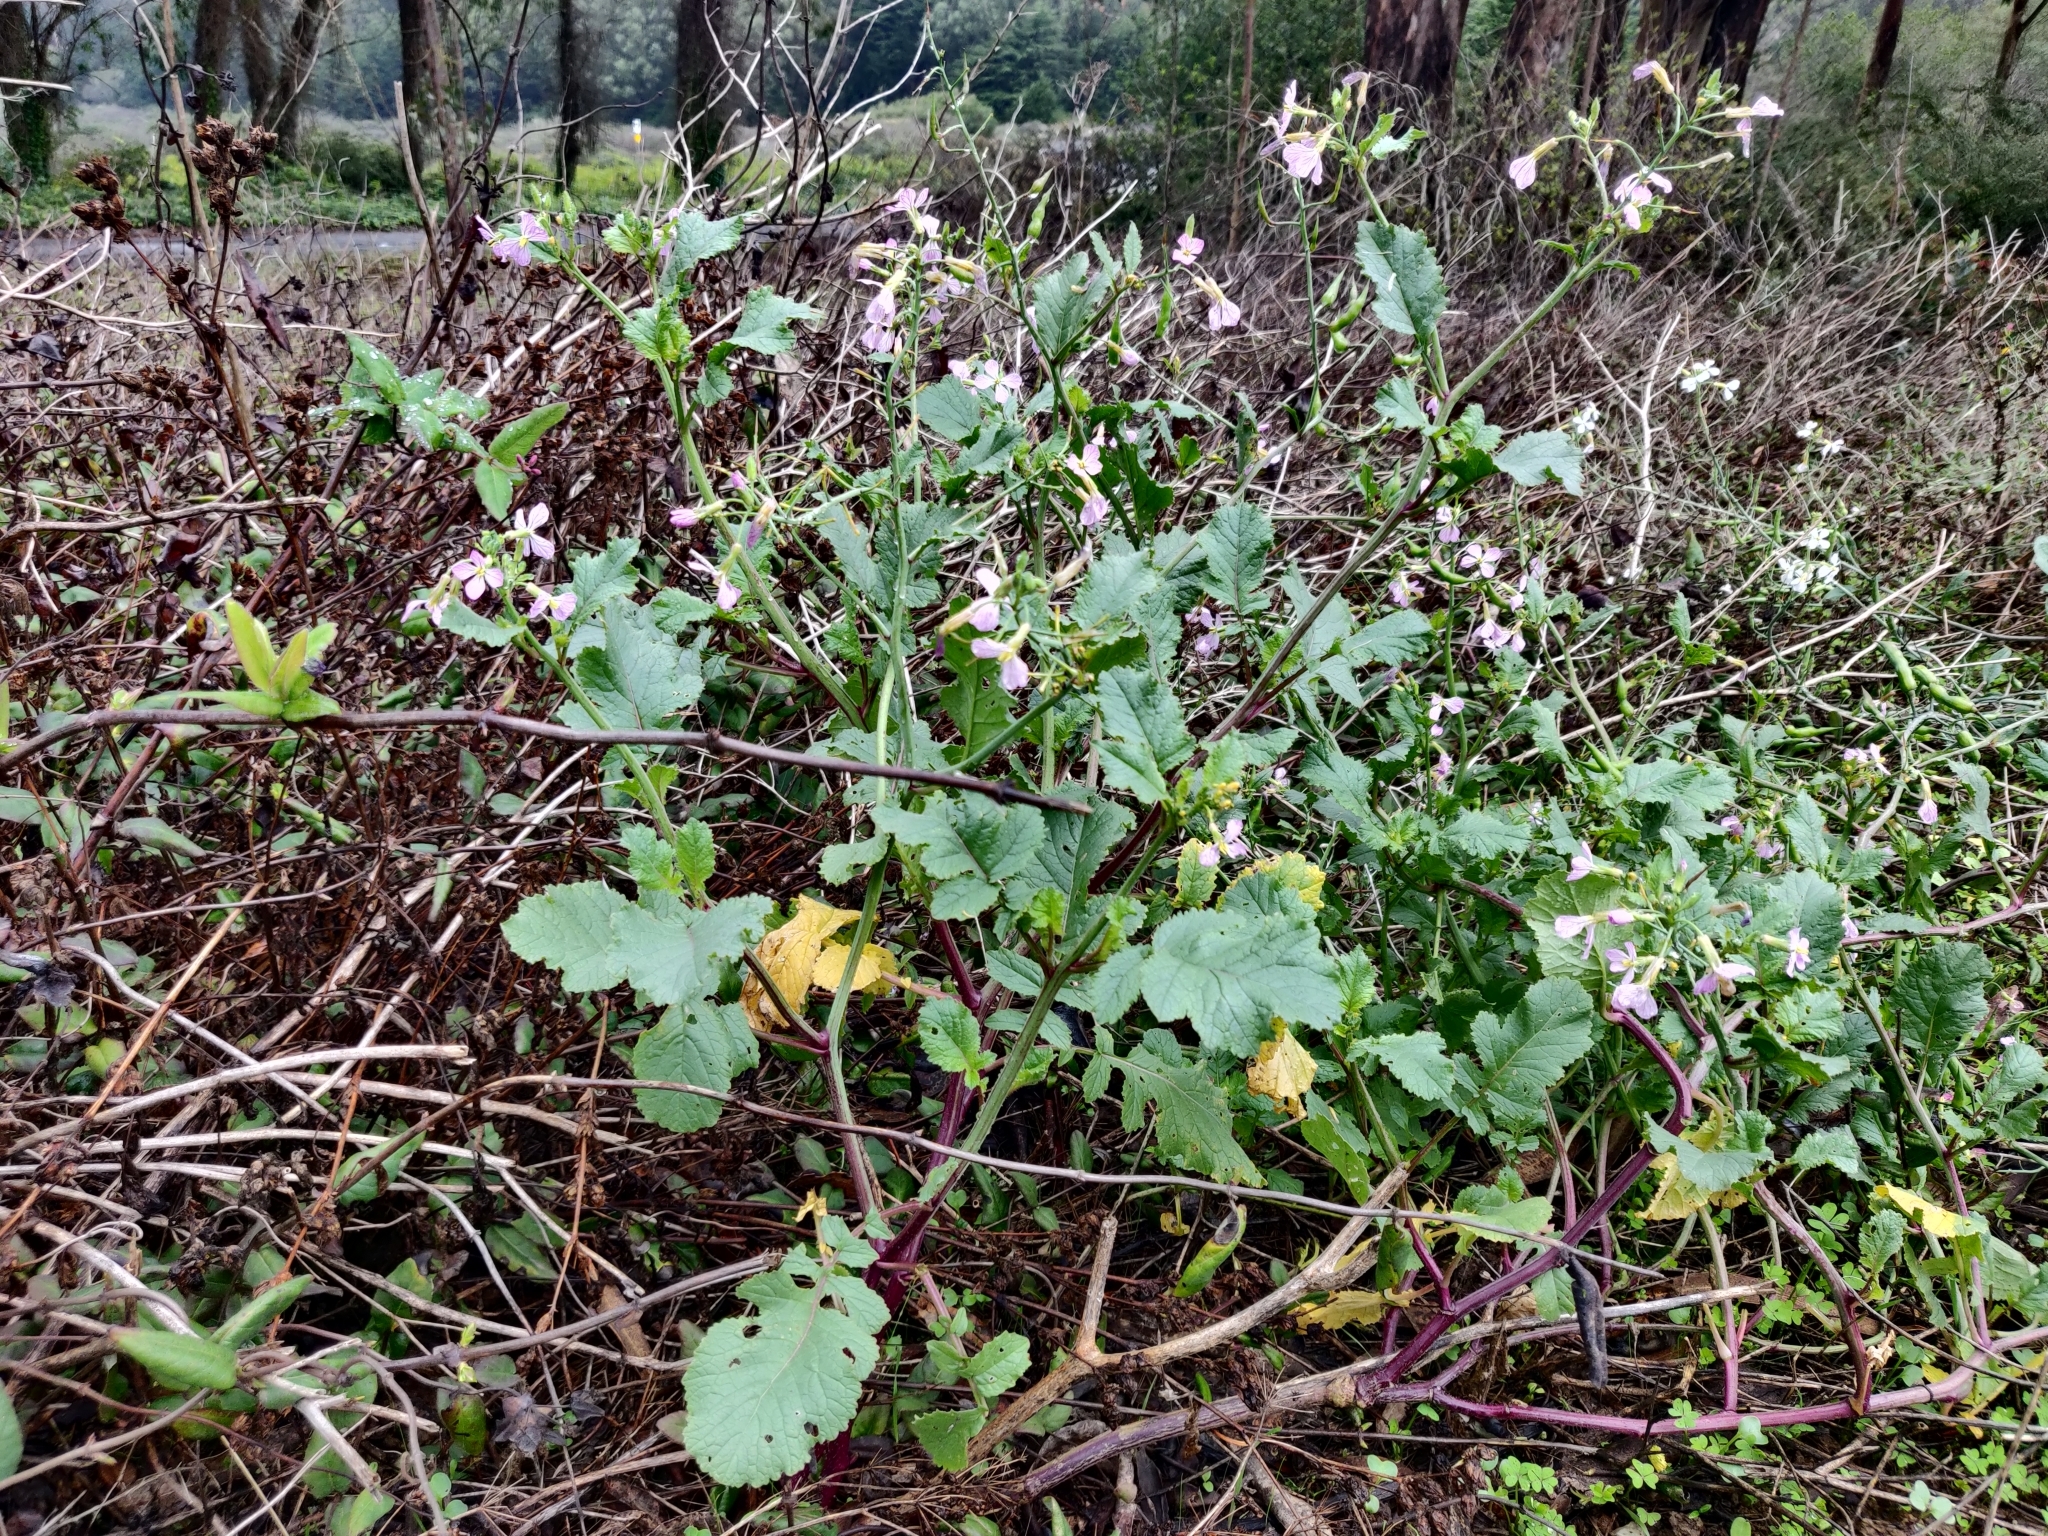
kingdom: Plantae
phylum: Tracheophyta
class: Magnoliopsida
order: Brassicales
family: Brassicaceae
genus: Raphanus
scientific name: Raphanus sativus
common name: Cultivated radish
